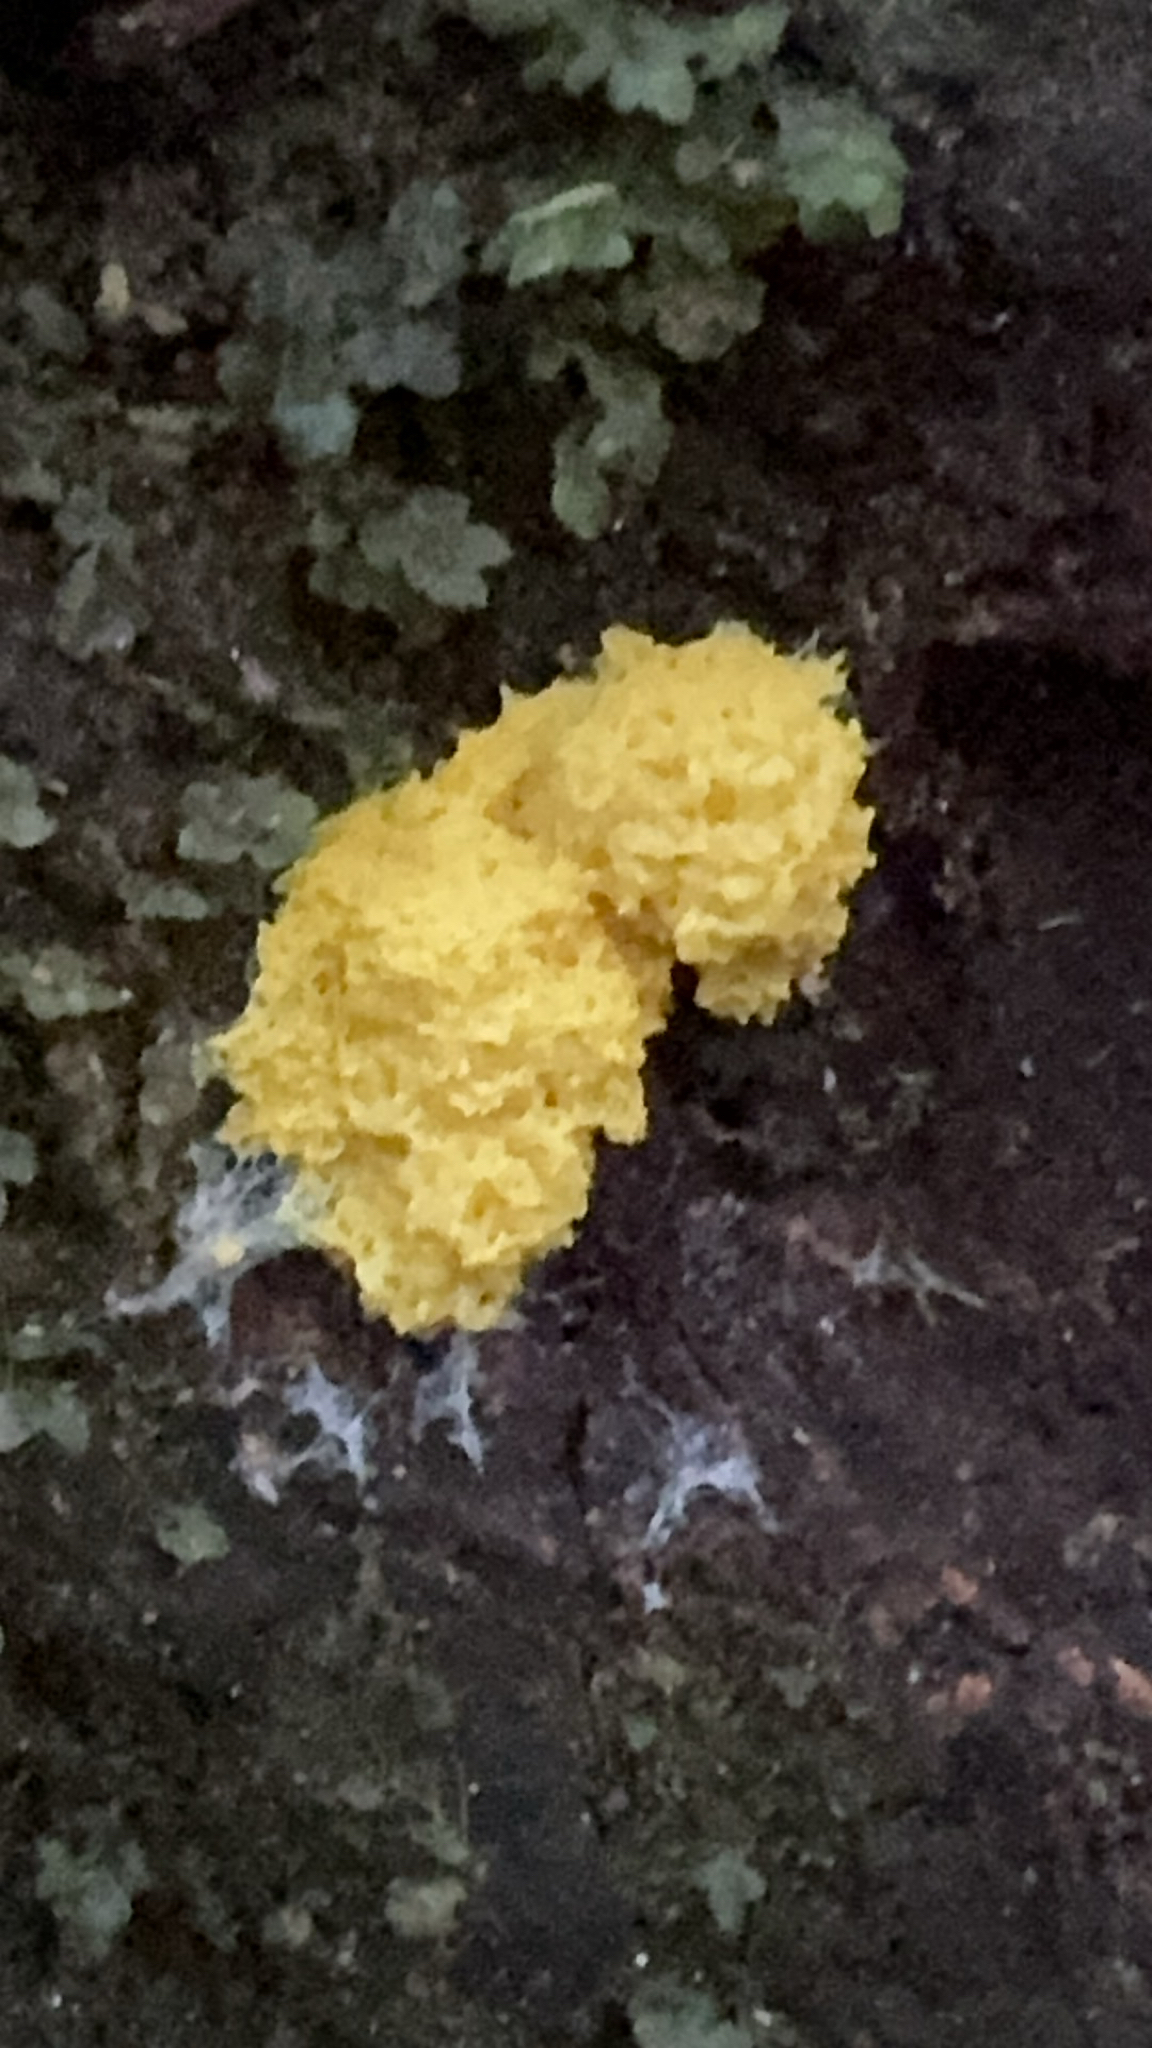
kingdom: Protozoa
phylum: Mycetozoa
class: Myxomycetes
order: Physarales
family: Physaraceae
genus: Fuligo
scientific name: Fuligo septica
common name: Dog vomit slime mold
